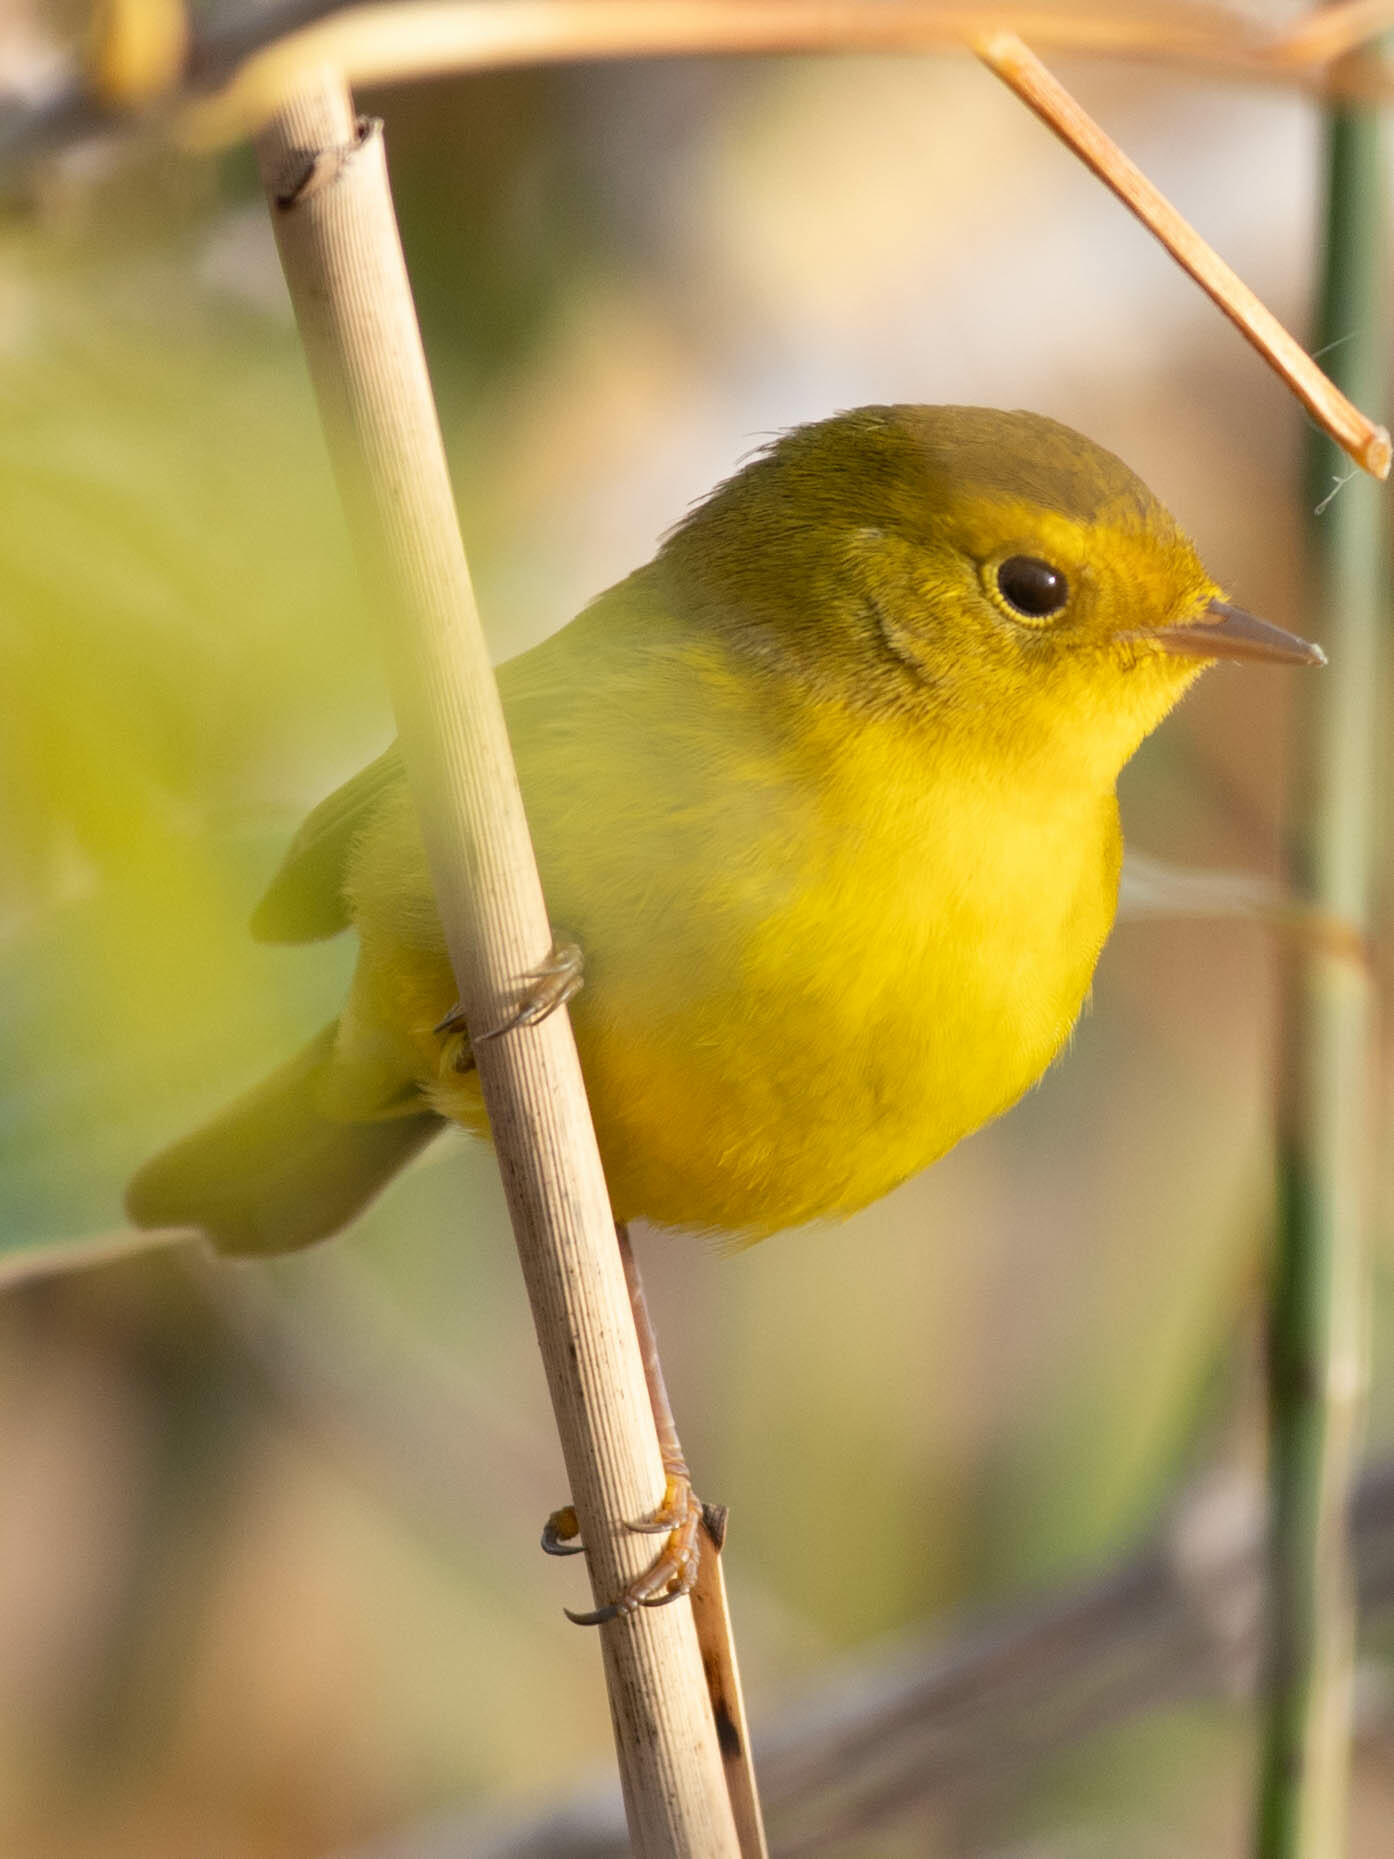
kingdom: Animalia
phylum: Chordata
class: Aves
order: Passeriformes
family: Parulidae
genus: Cardellina
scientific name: Cardellina pusilla
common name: Wilson's warbler
